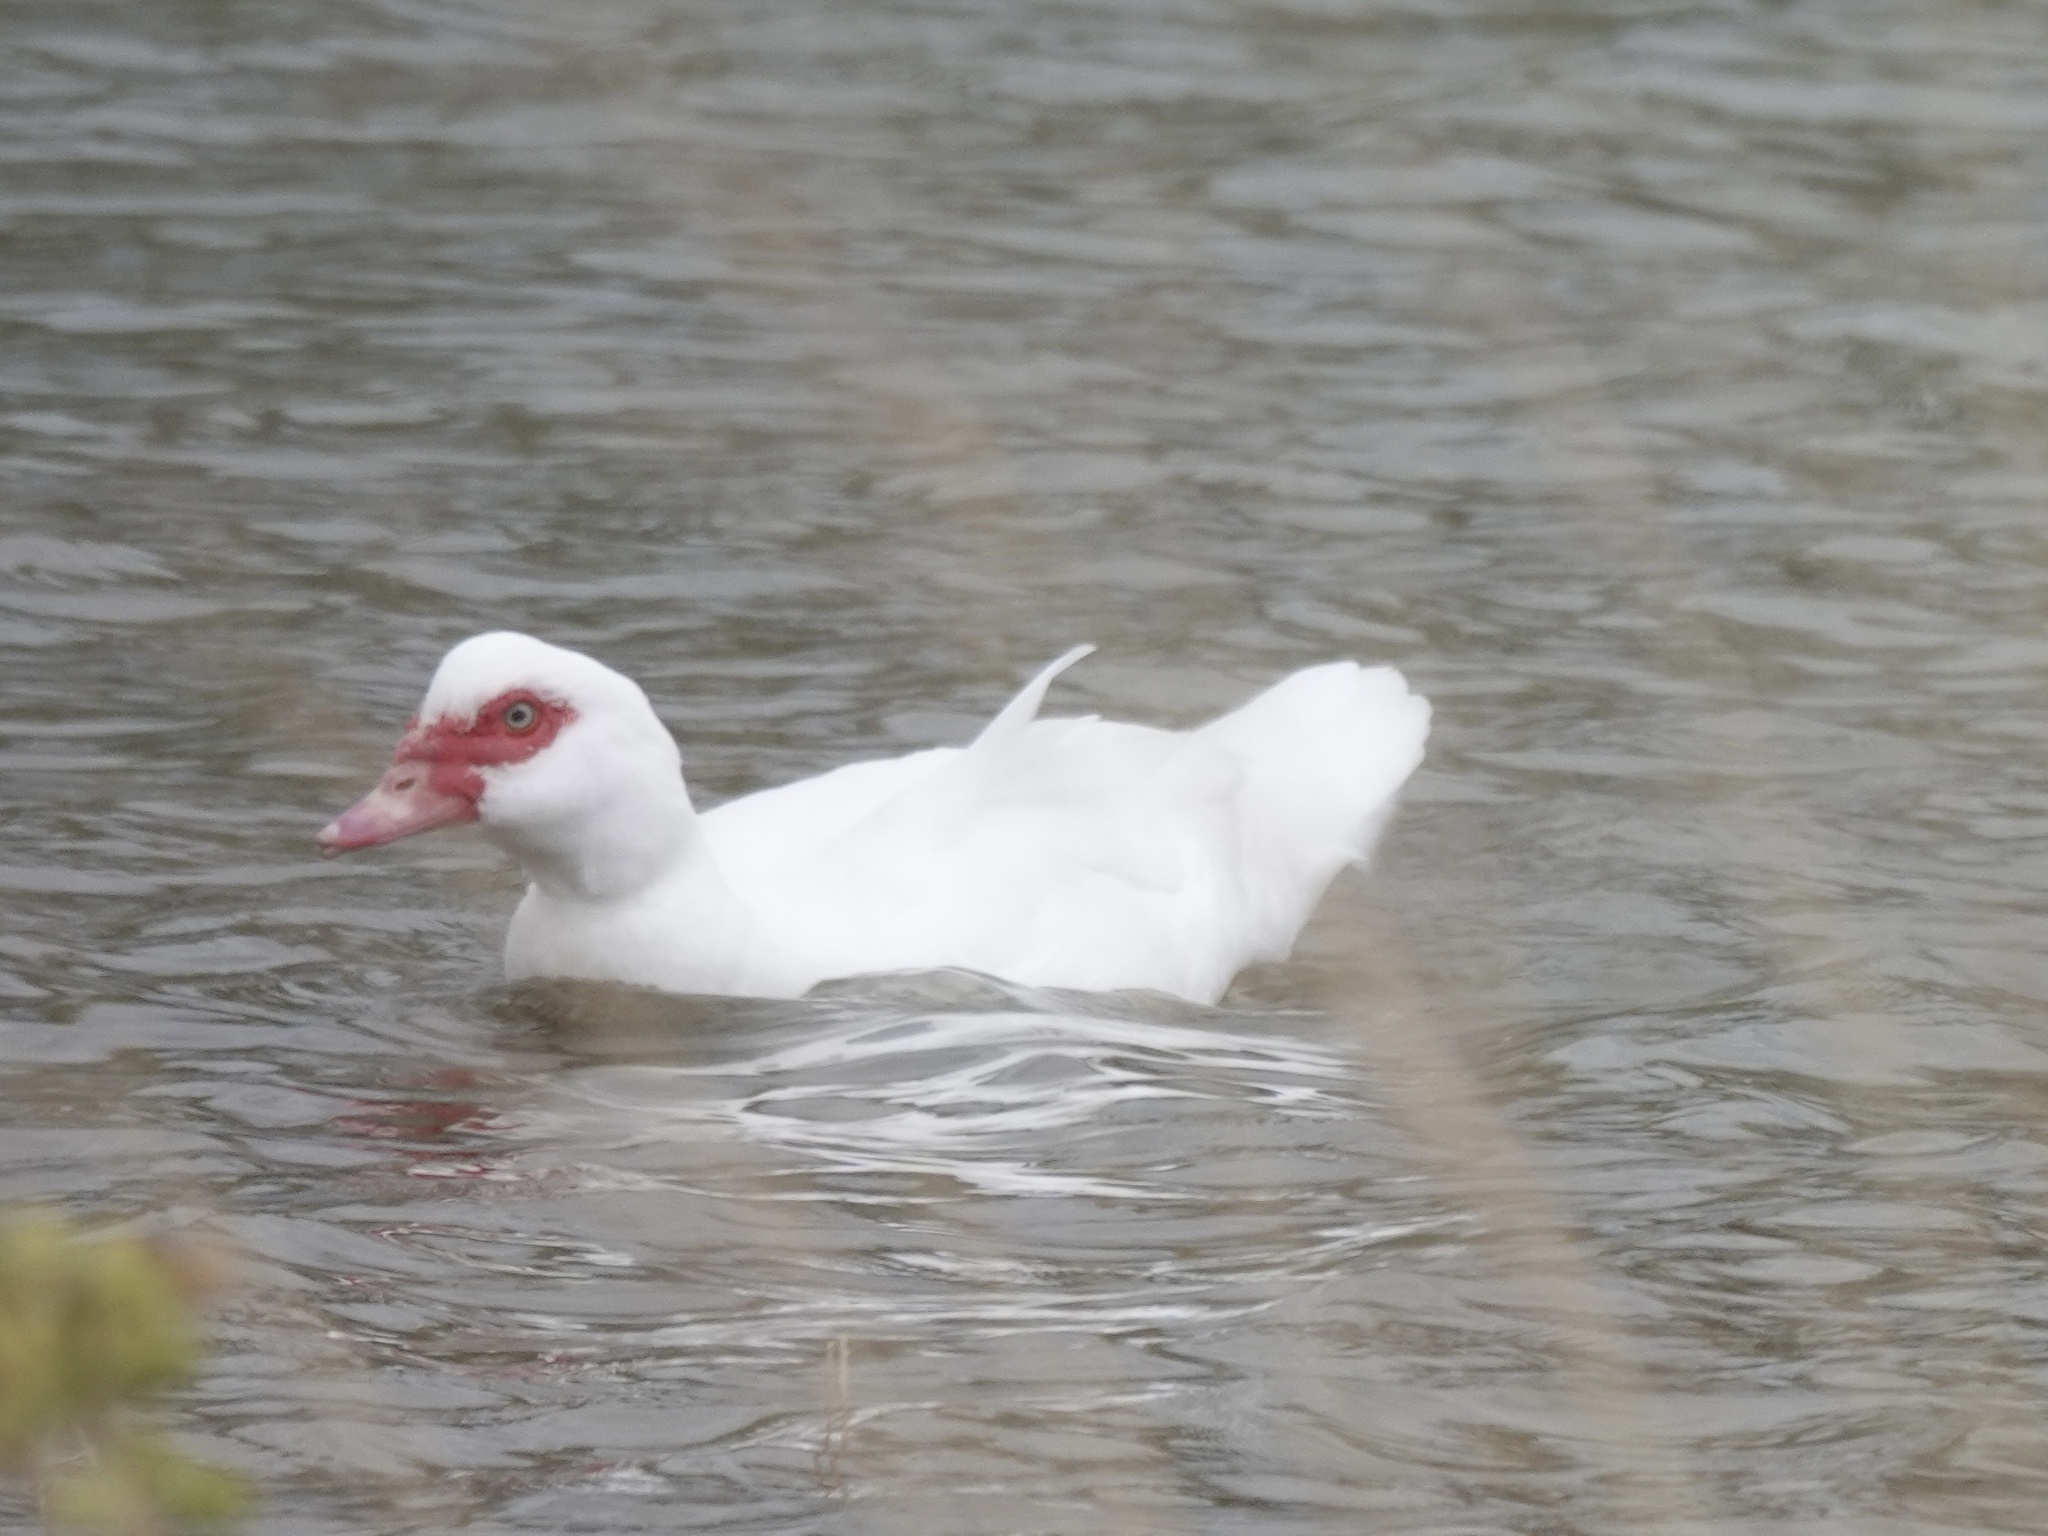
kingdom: Animalia
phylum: Chordata
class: Aves
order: Anseriformes
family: Anatidae
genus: Cairina
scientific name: Cairina moschata
